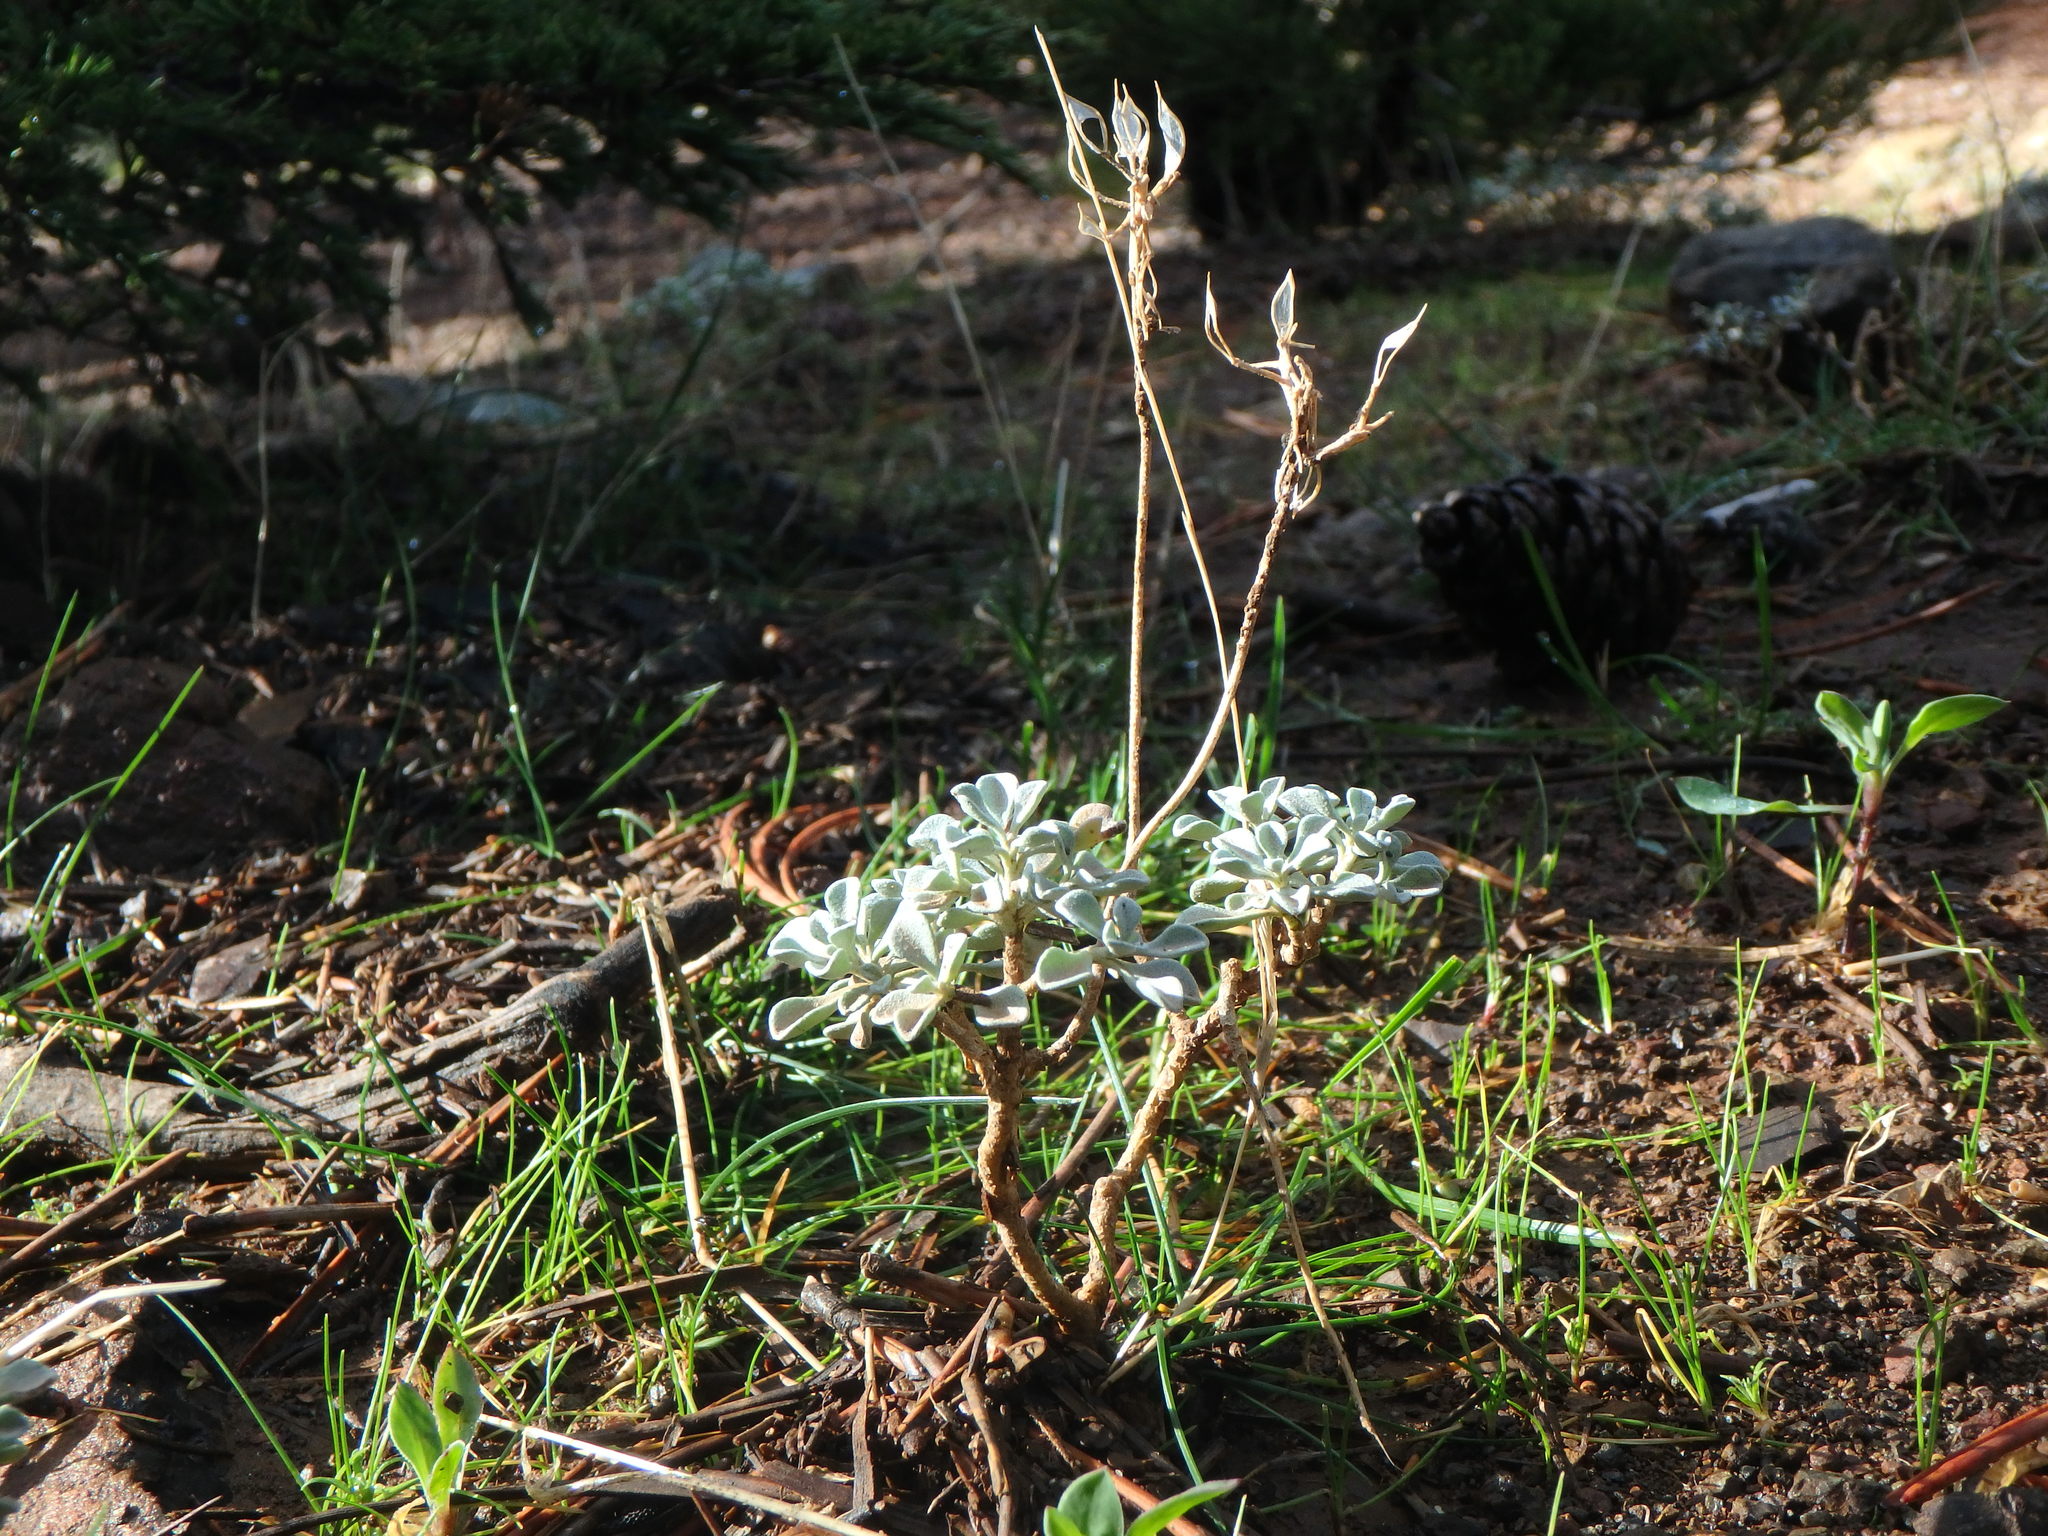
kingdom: Plantae
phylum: Tracheophyta
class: Magnoliopsida
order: Brassicales
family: Brassicaceae
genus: Odontarrhena
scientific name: Odontarrhena troodi
